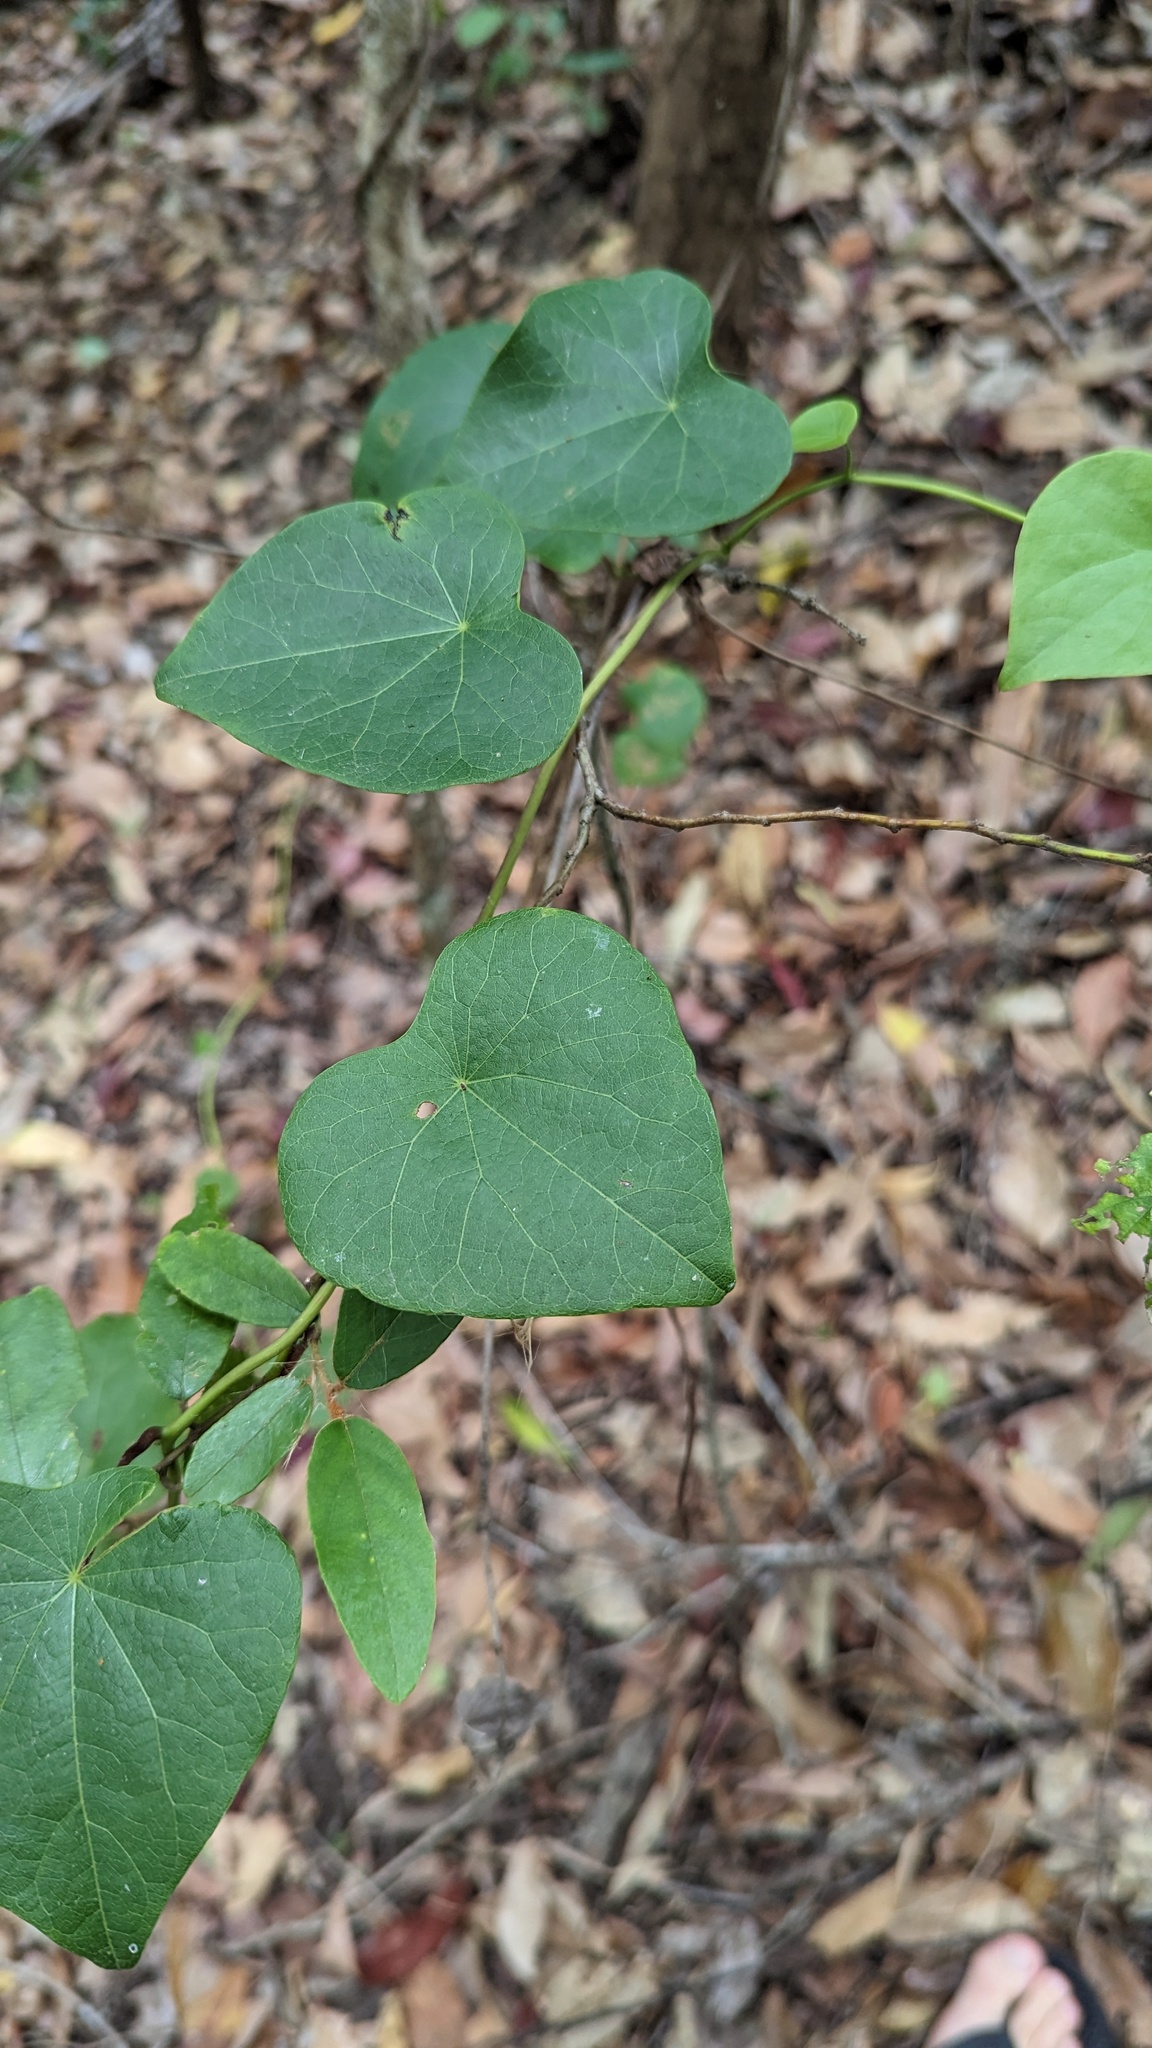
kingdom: Plantae
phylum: Tracheophyta
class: Magnoliopsida
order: Ranunculales
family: Menispermaceae
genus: Stephania
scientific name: Stephania japonica
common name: Snake vine
